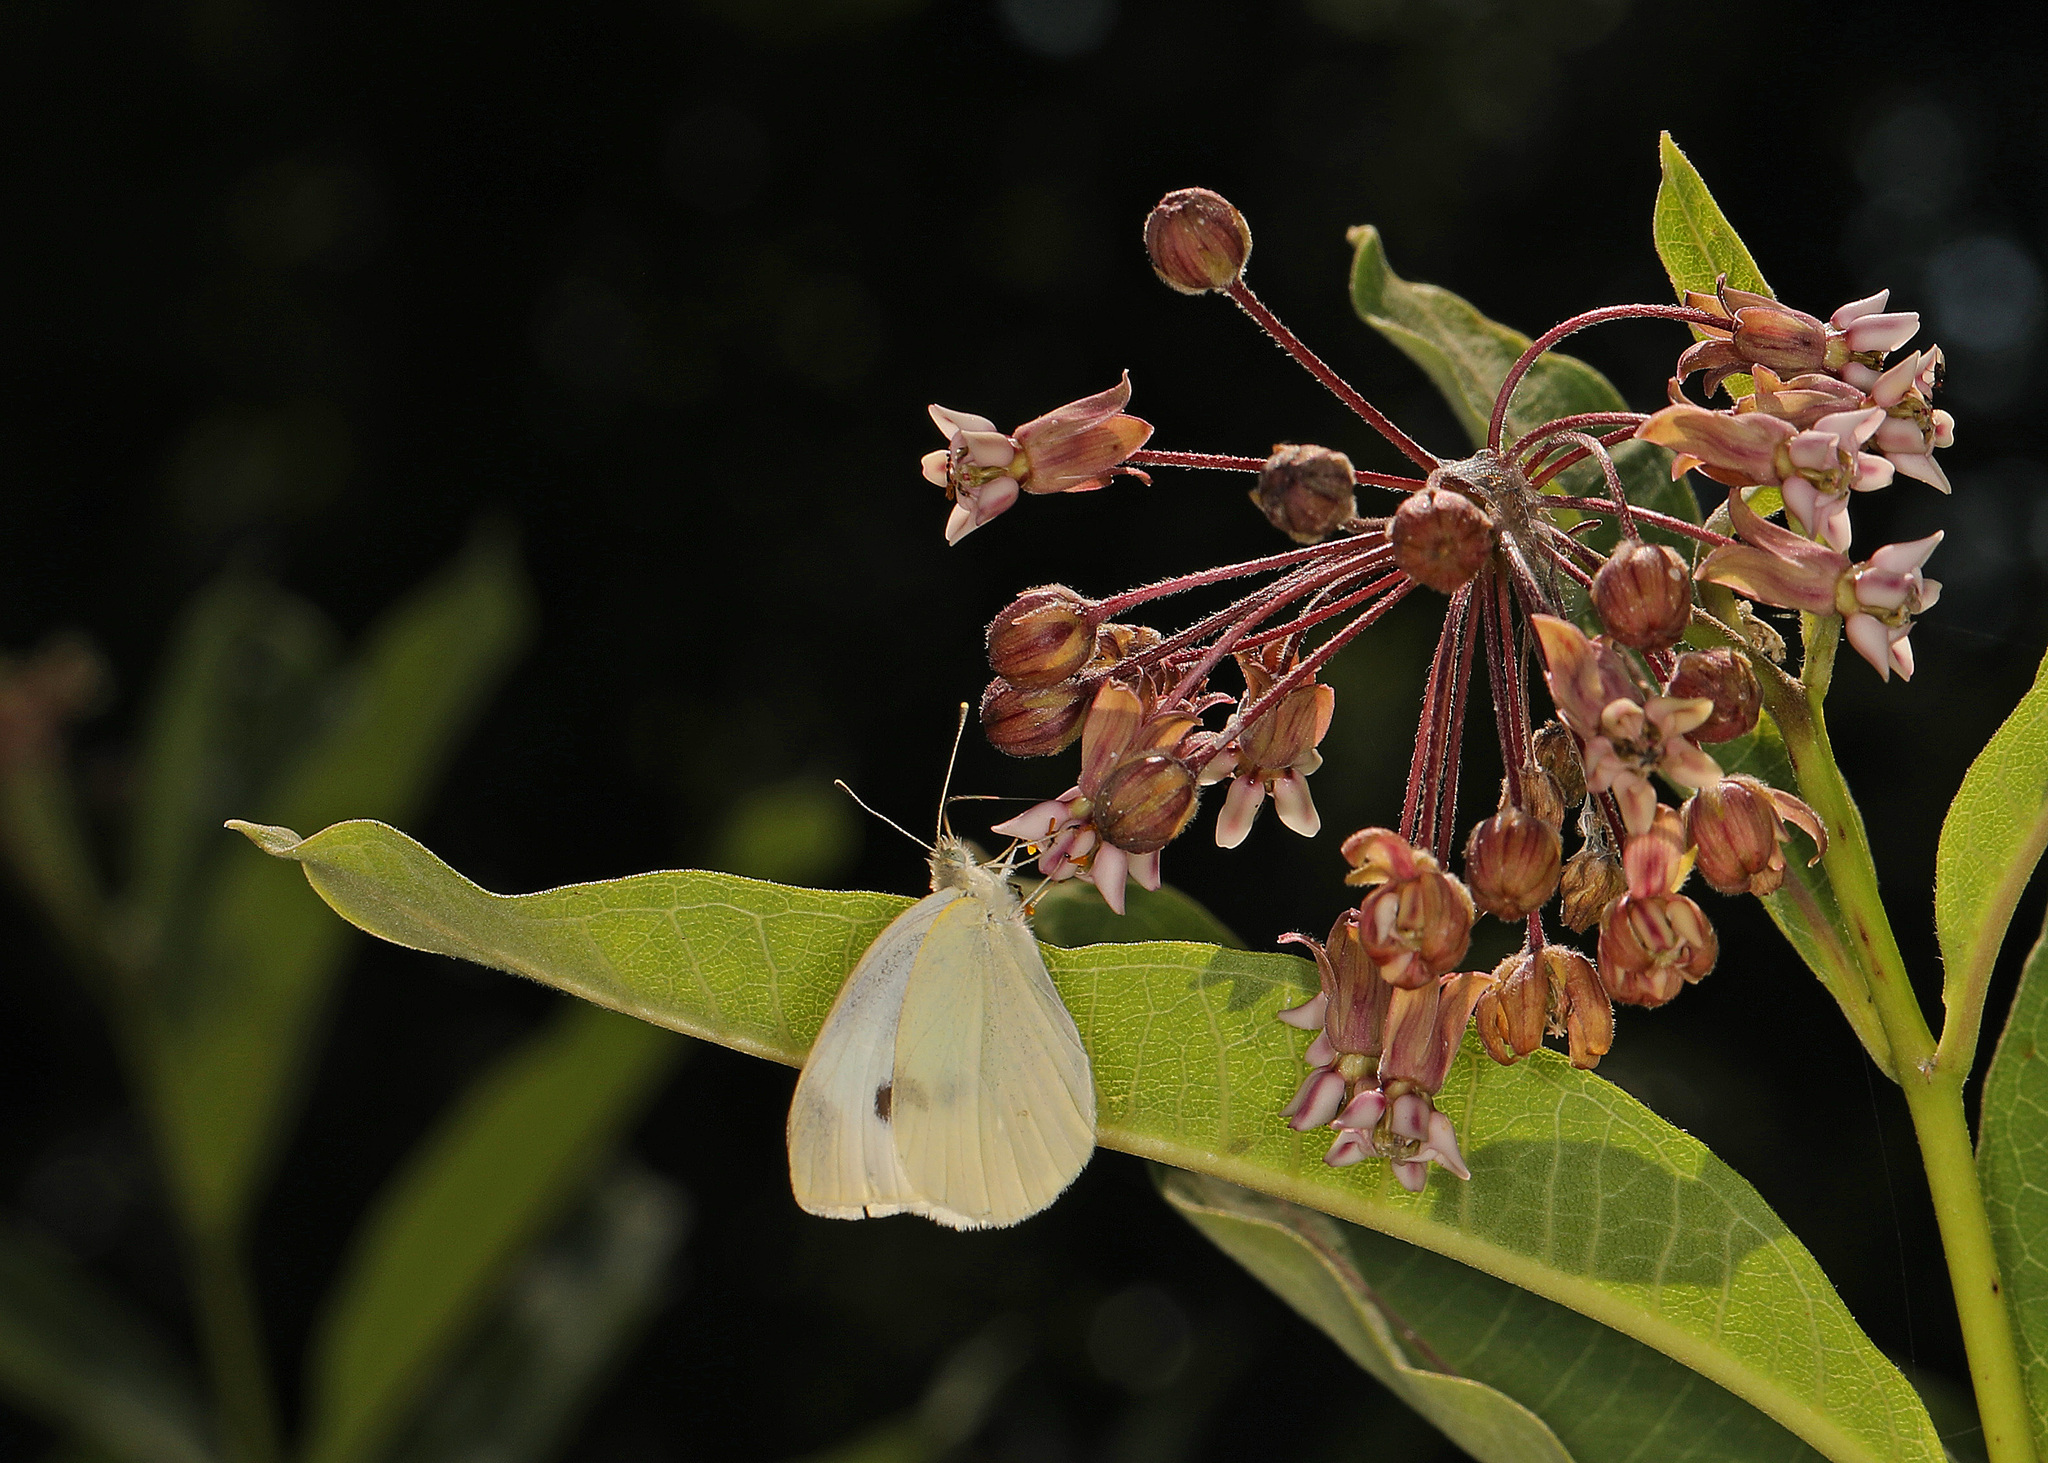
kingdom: Animalia
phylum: Arthropoda
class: Insecta
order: Lepidoptera
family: Pieridae
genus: Pieris
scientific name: Pieris rapae
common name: Small white
